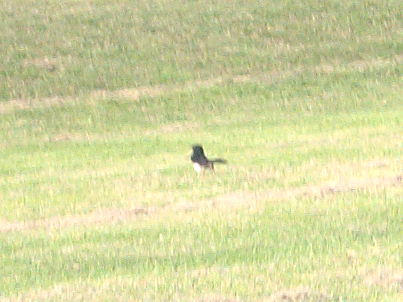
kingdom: Animalia
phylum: Chordata
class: Aves
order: Passeriformes
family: Rhipiduridae
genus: Rhipidura
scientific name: Rhipidura leucophrys
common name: Willie wagtail
